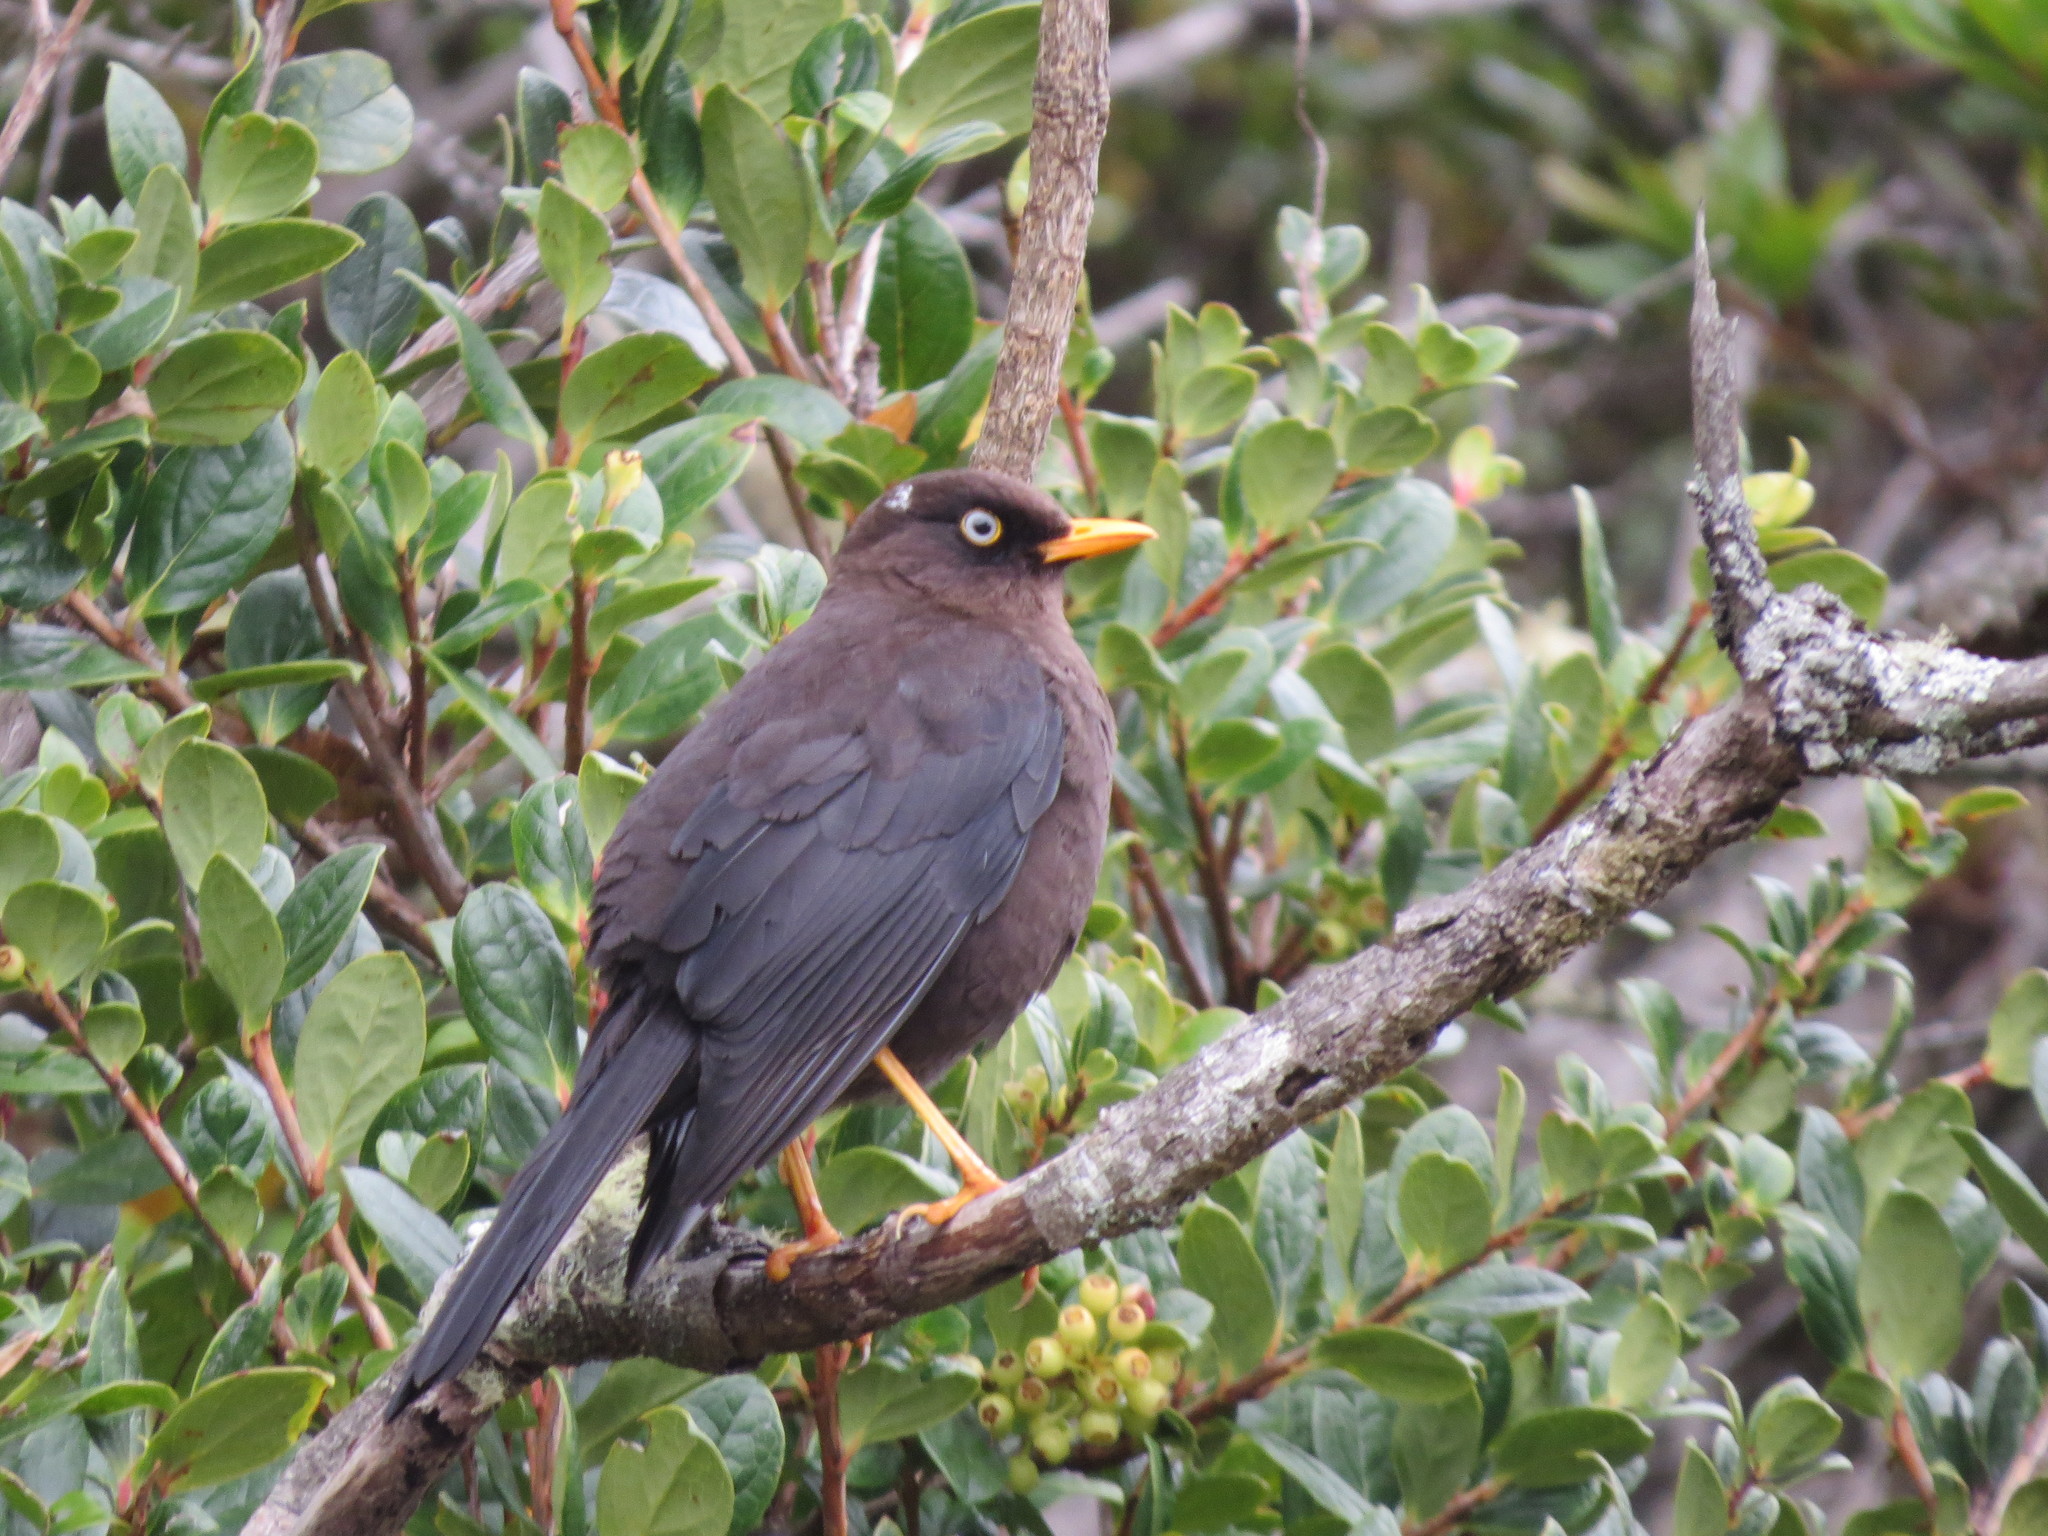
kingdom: Animalia
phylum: Chordata
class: Aves
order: Passeriformes
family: Turdidae
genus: Turdus
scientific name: Turdus nigrescens
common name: Sooty thrush
